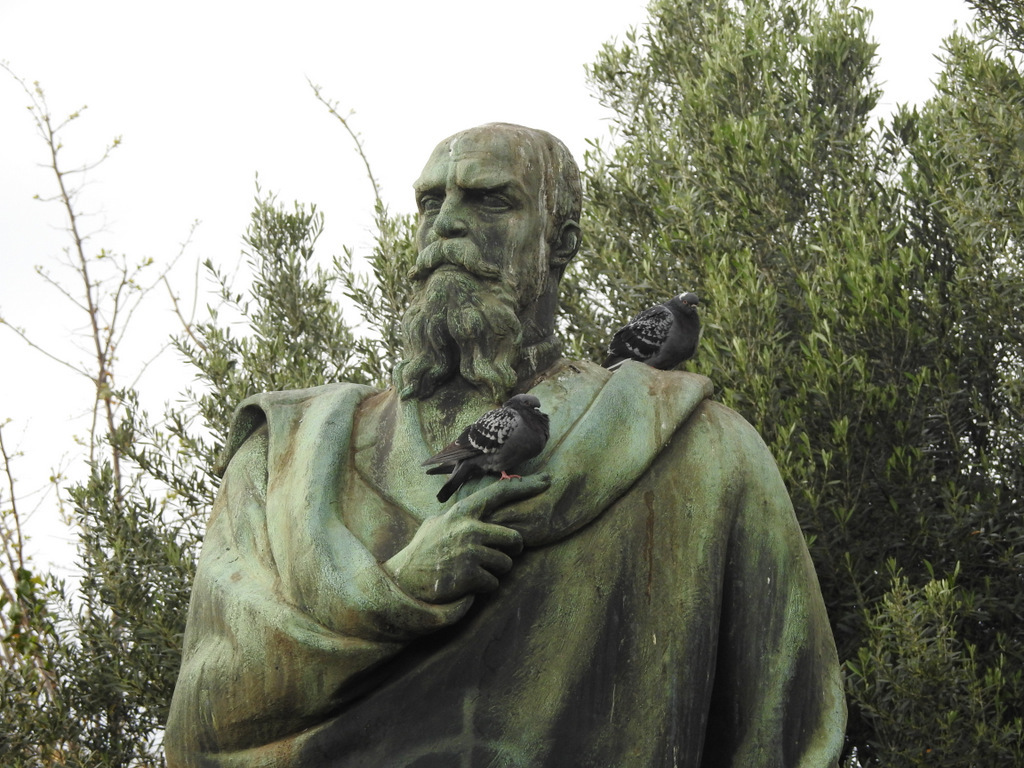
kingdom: Animalia
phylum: Chordata
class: Aves
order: Columbiformes
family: Columbidae
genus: Columba
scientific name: Columba livia
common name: Rock pigeon
